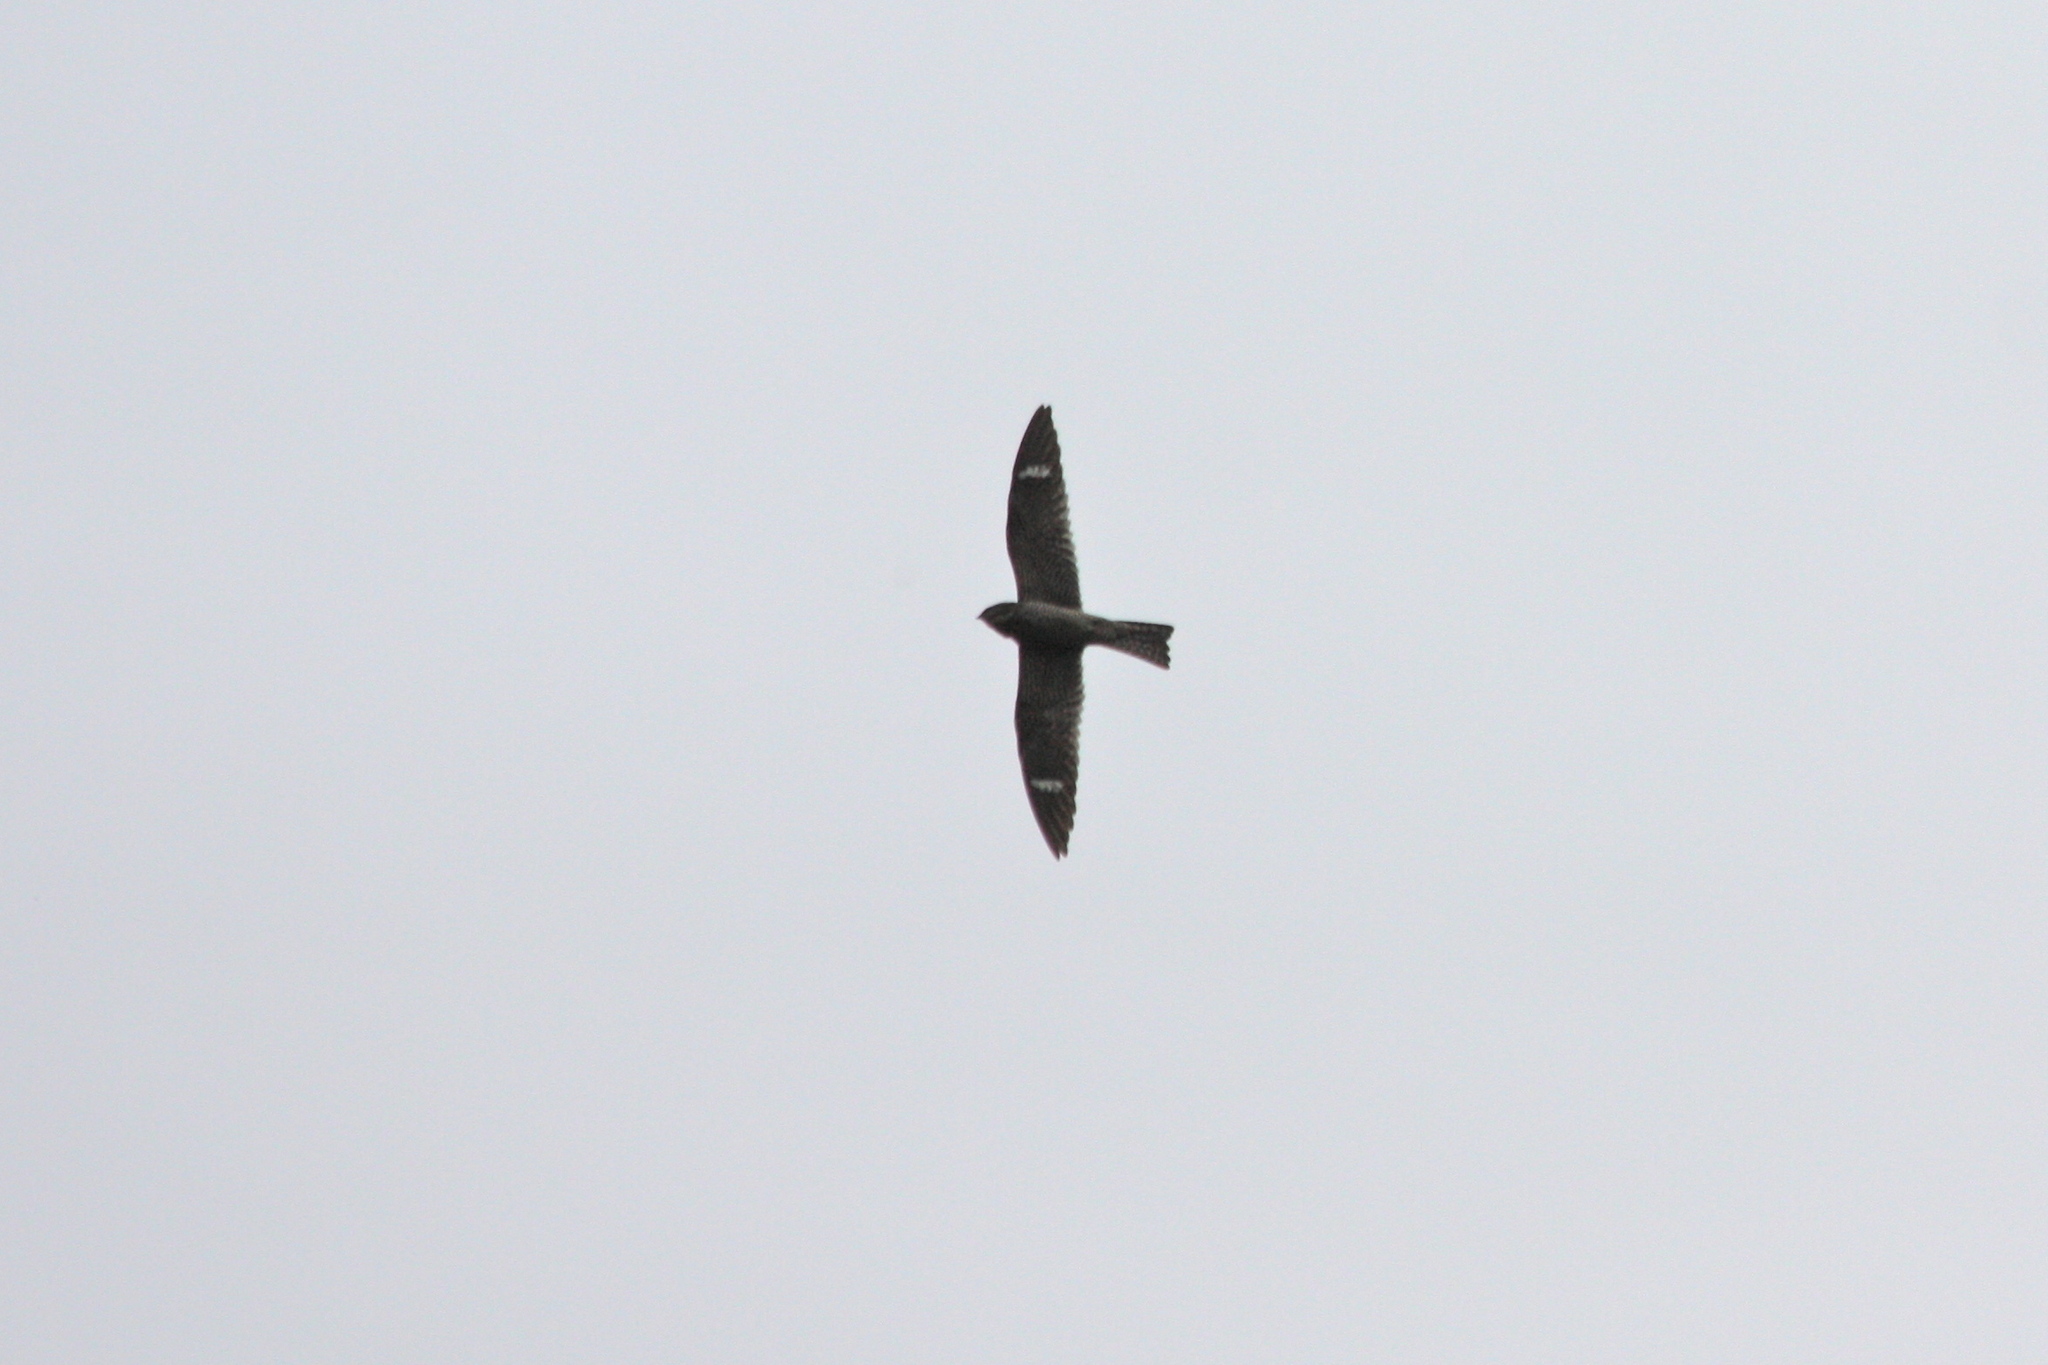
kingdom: Animalia
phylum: Chordata
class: Aves
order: Caprimulgiformes
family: Caprimulgidae
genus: Chordeiles
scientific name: Chordeiles minor
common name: Common nighthawk
